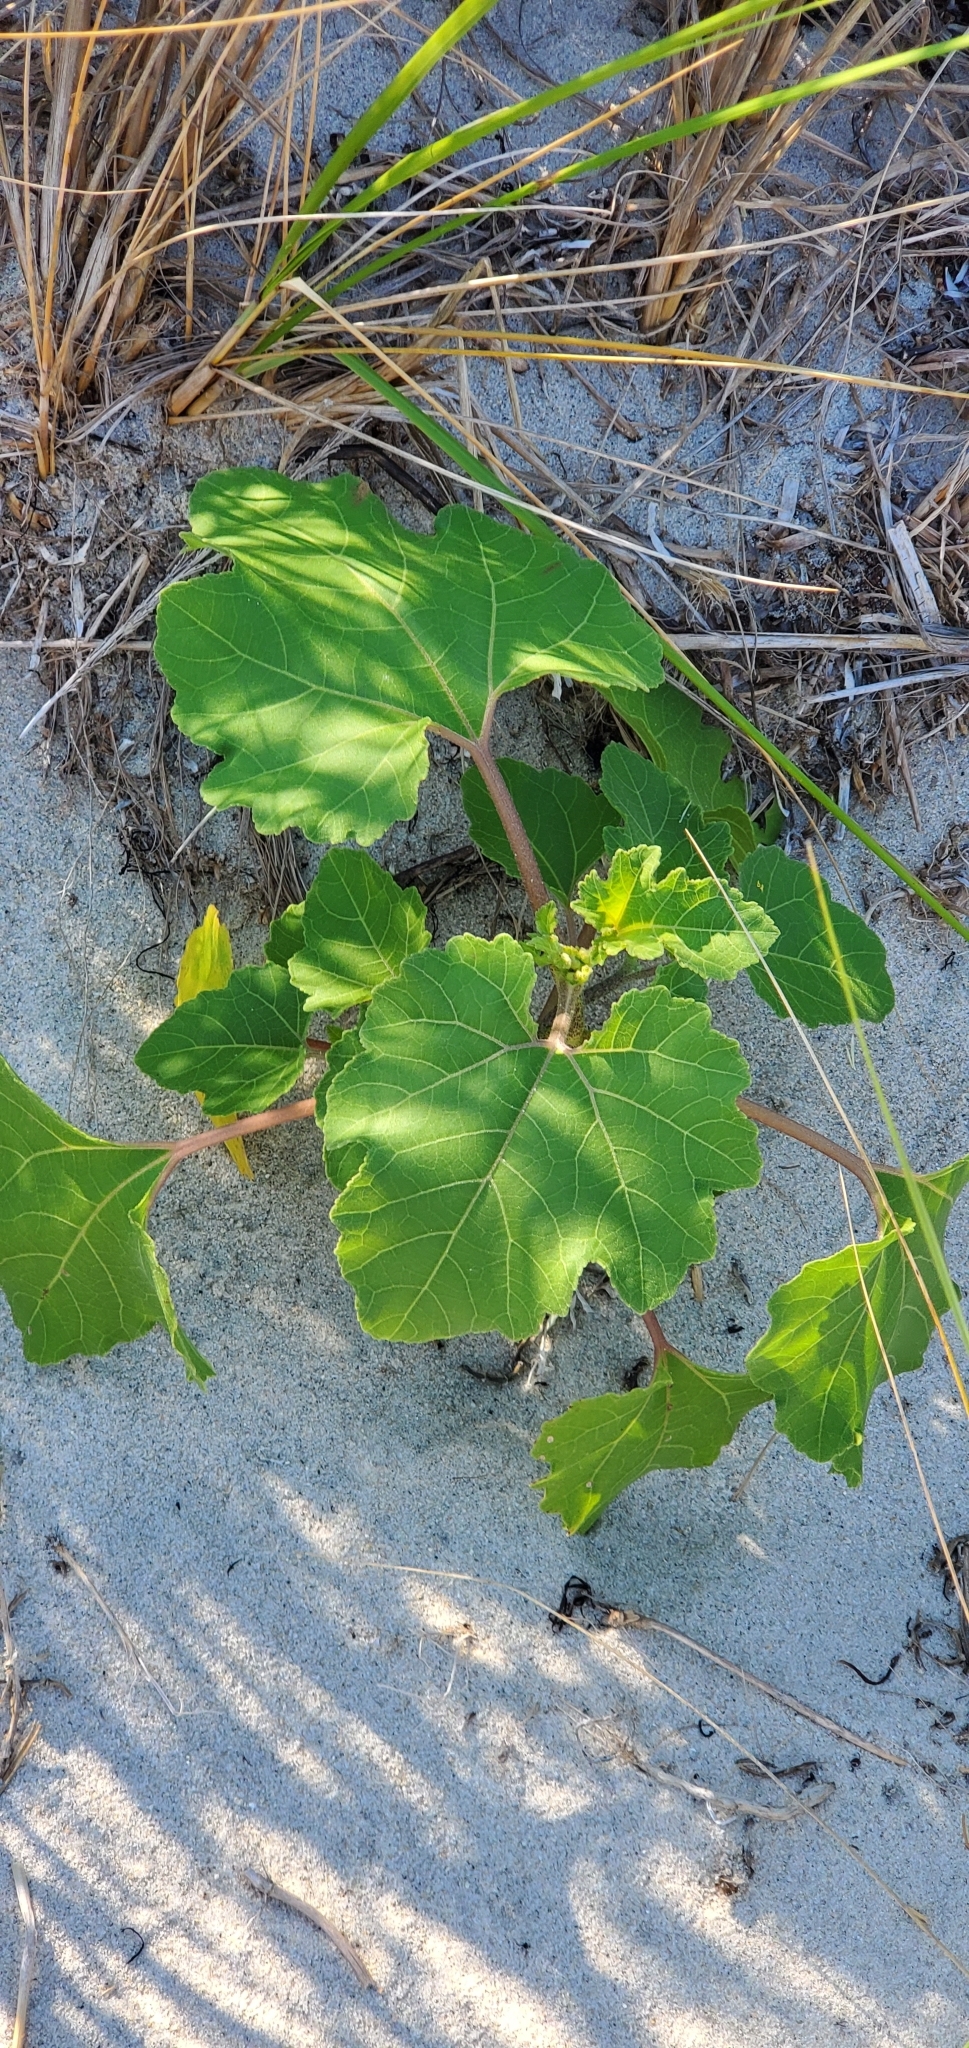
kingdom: Plantae
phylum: Tracheophyta
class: Magnoliopsida
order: Asterales
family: Asteraceae
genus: Xanthium
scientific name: Xanthium strumarium
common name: Rough cocklebur
